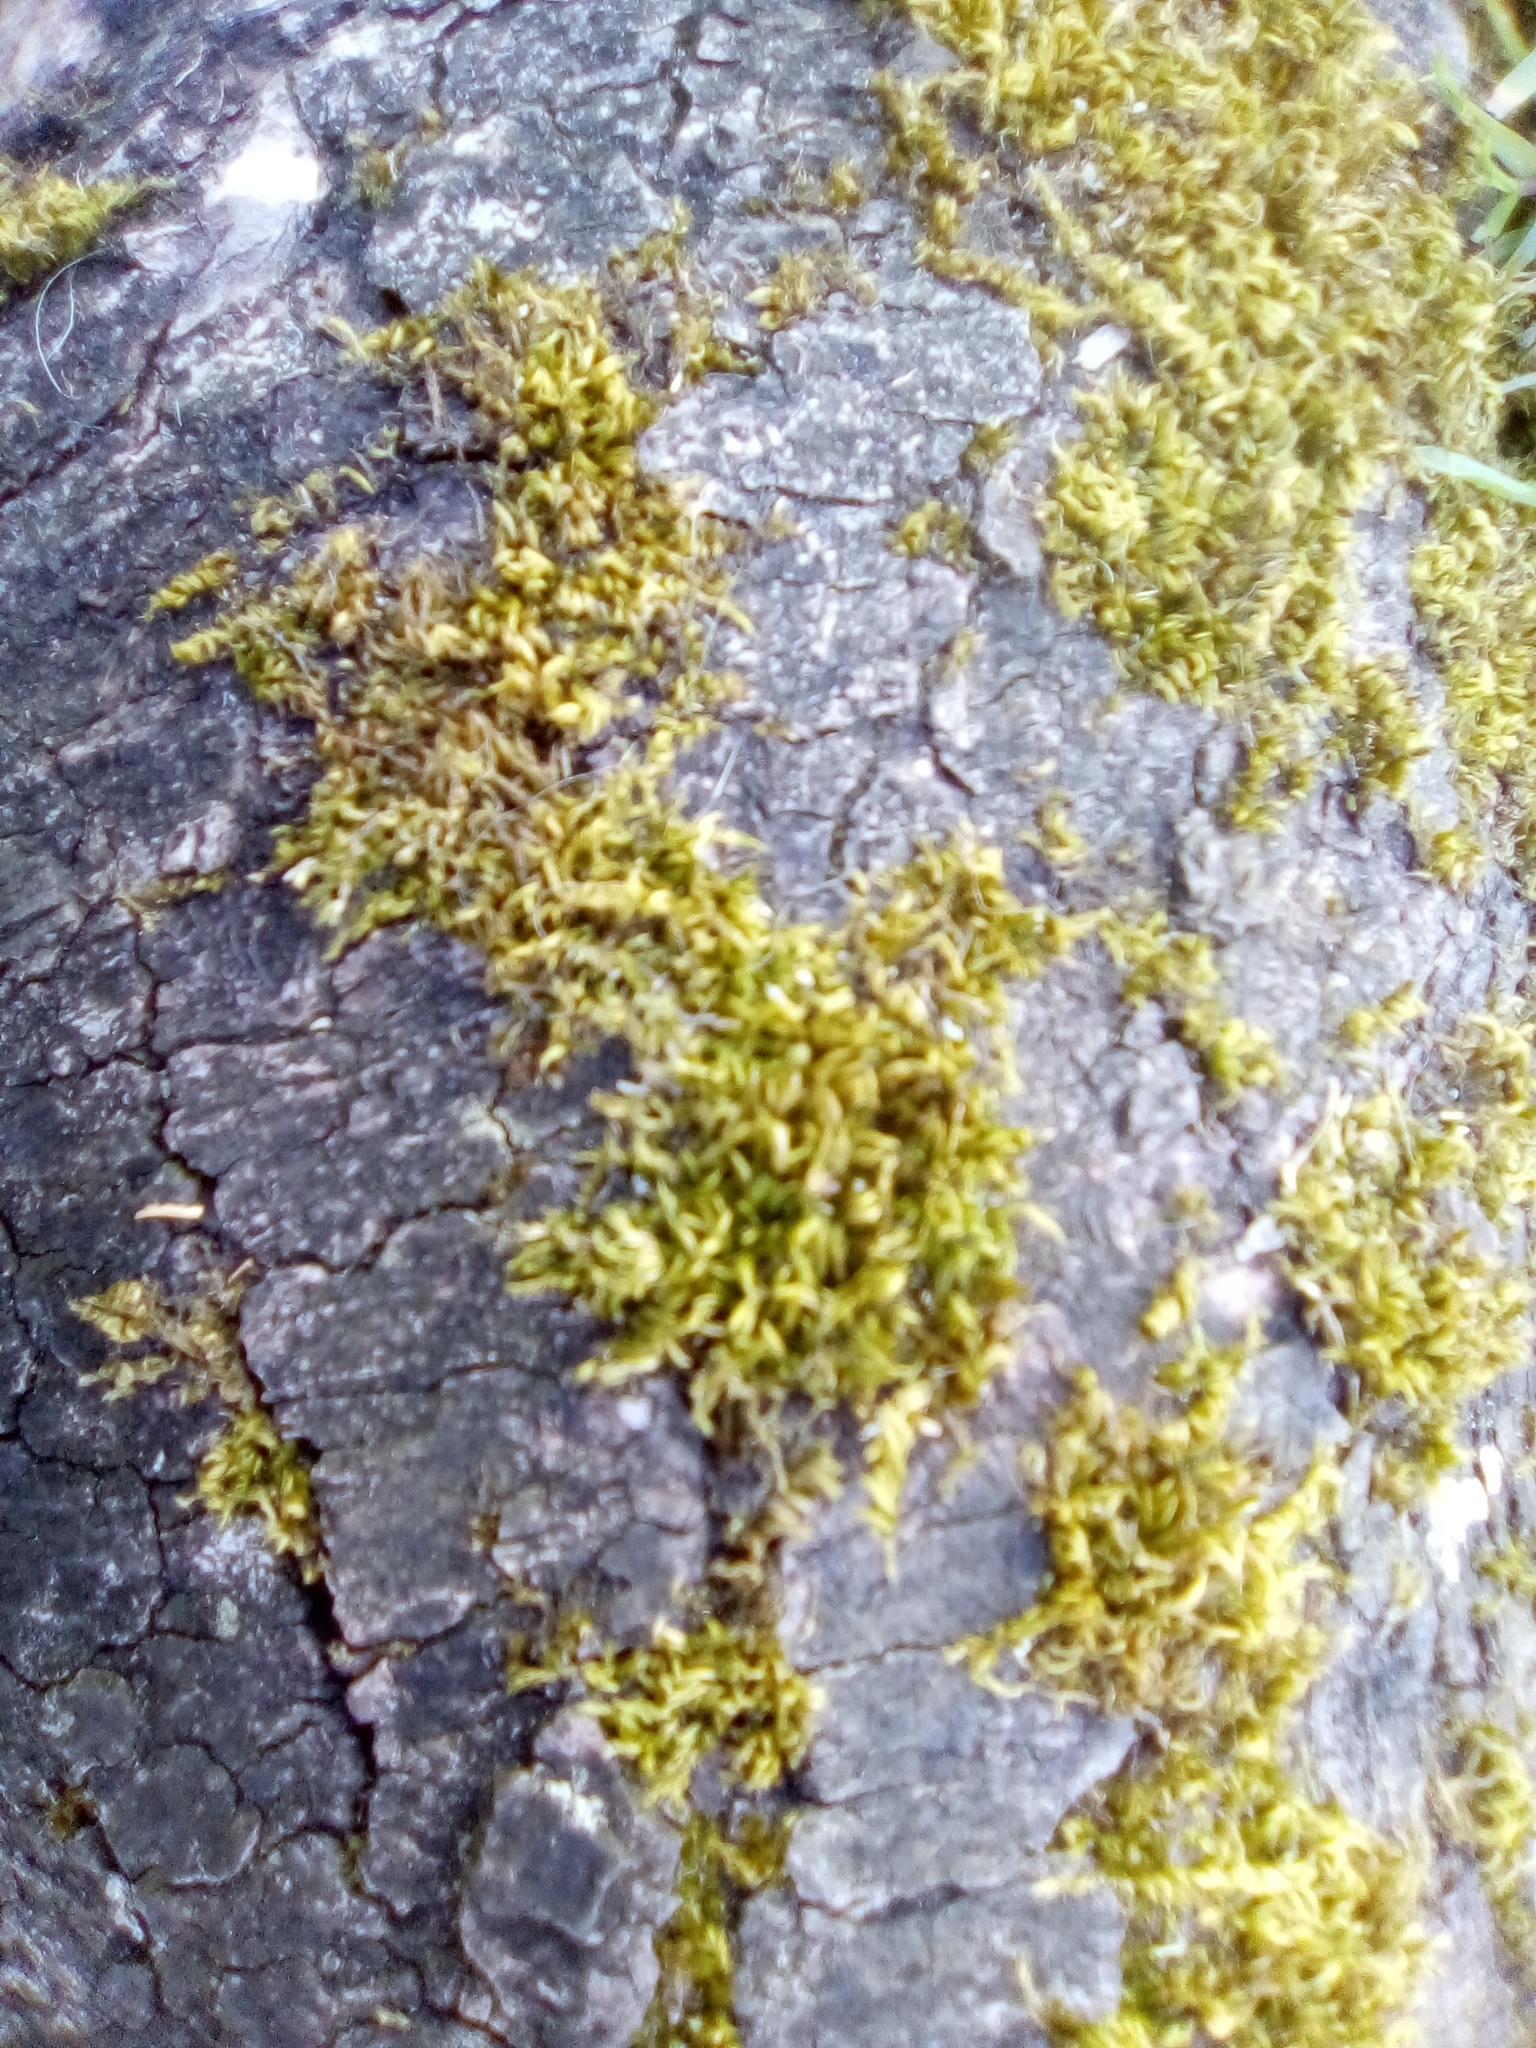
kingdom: Plantae
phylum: Bryophyta
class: Bryopsida
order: Hypnales
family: Brachytheciaceae
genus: Homalothecium
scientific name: Homalothecium sericeum
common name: Silky wall feather-moss
